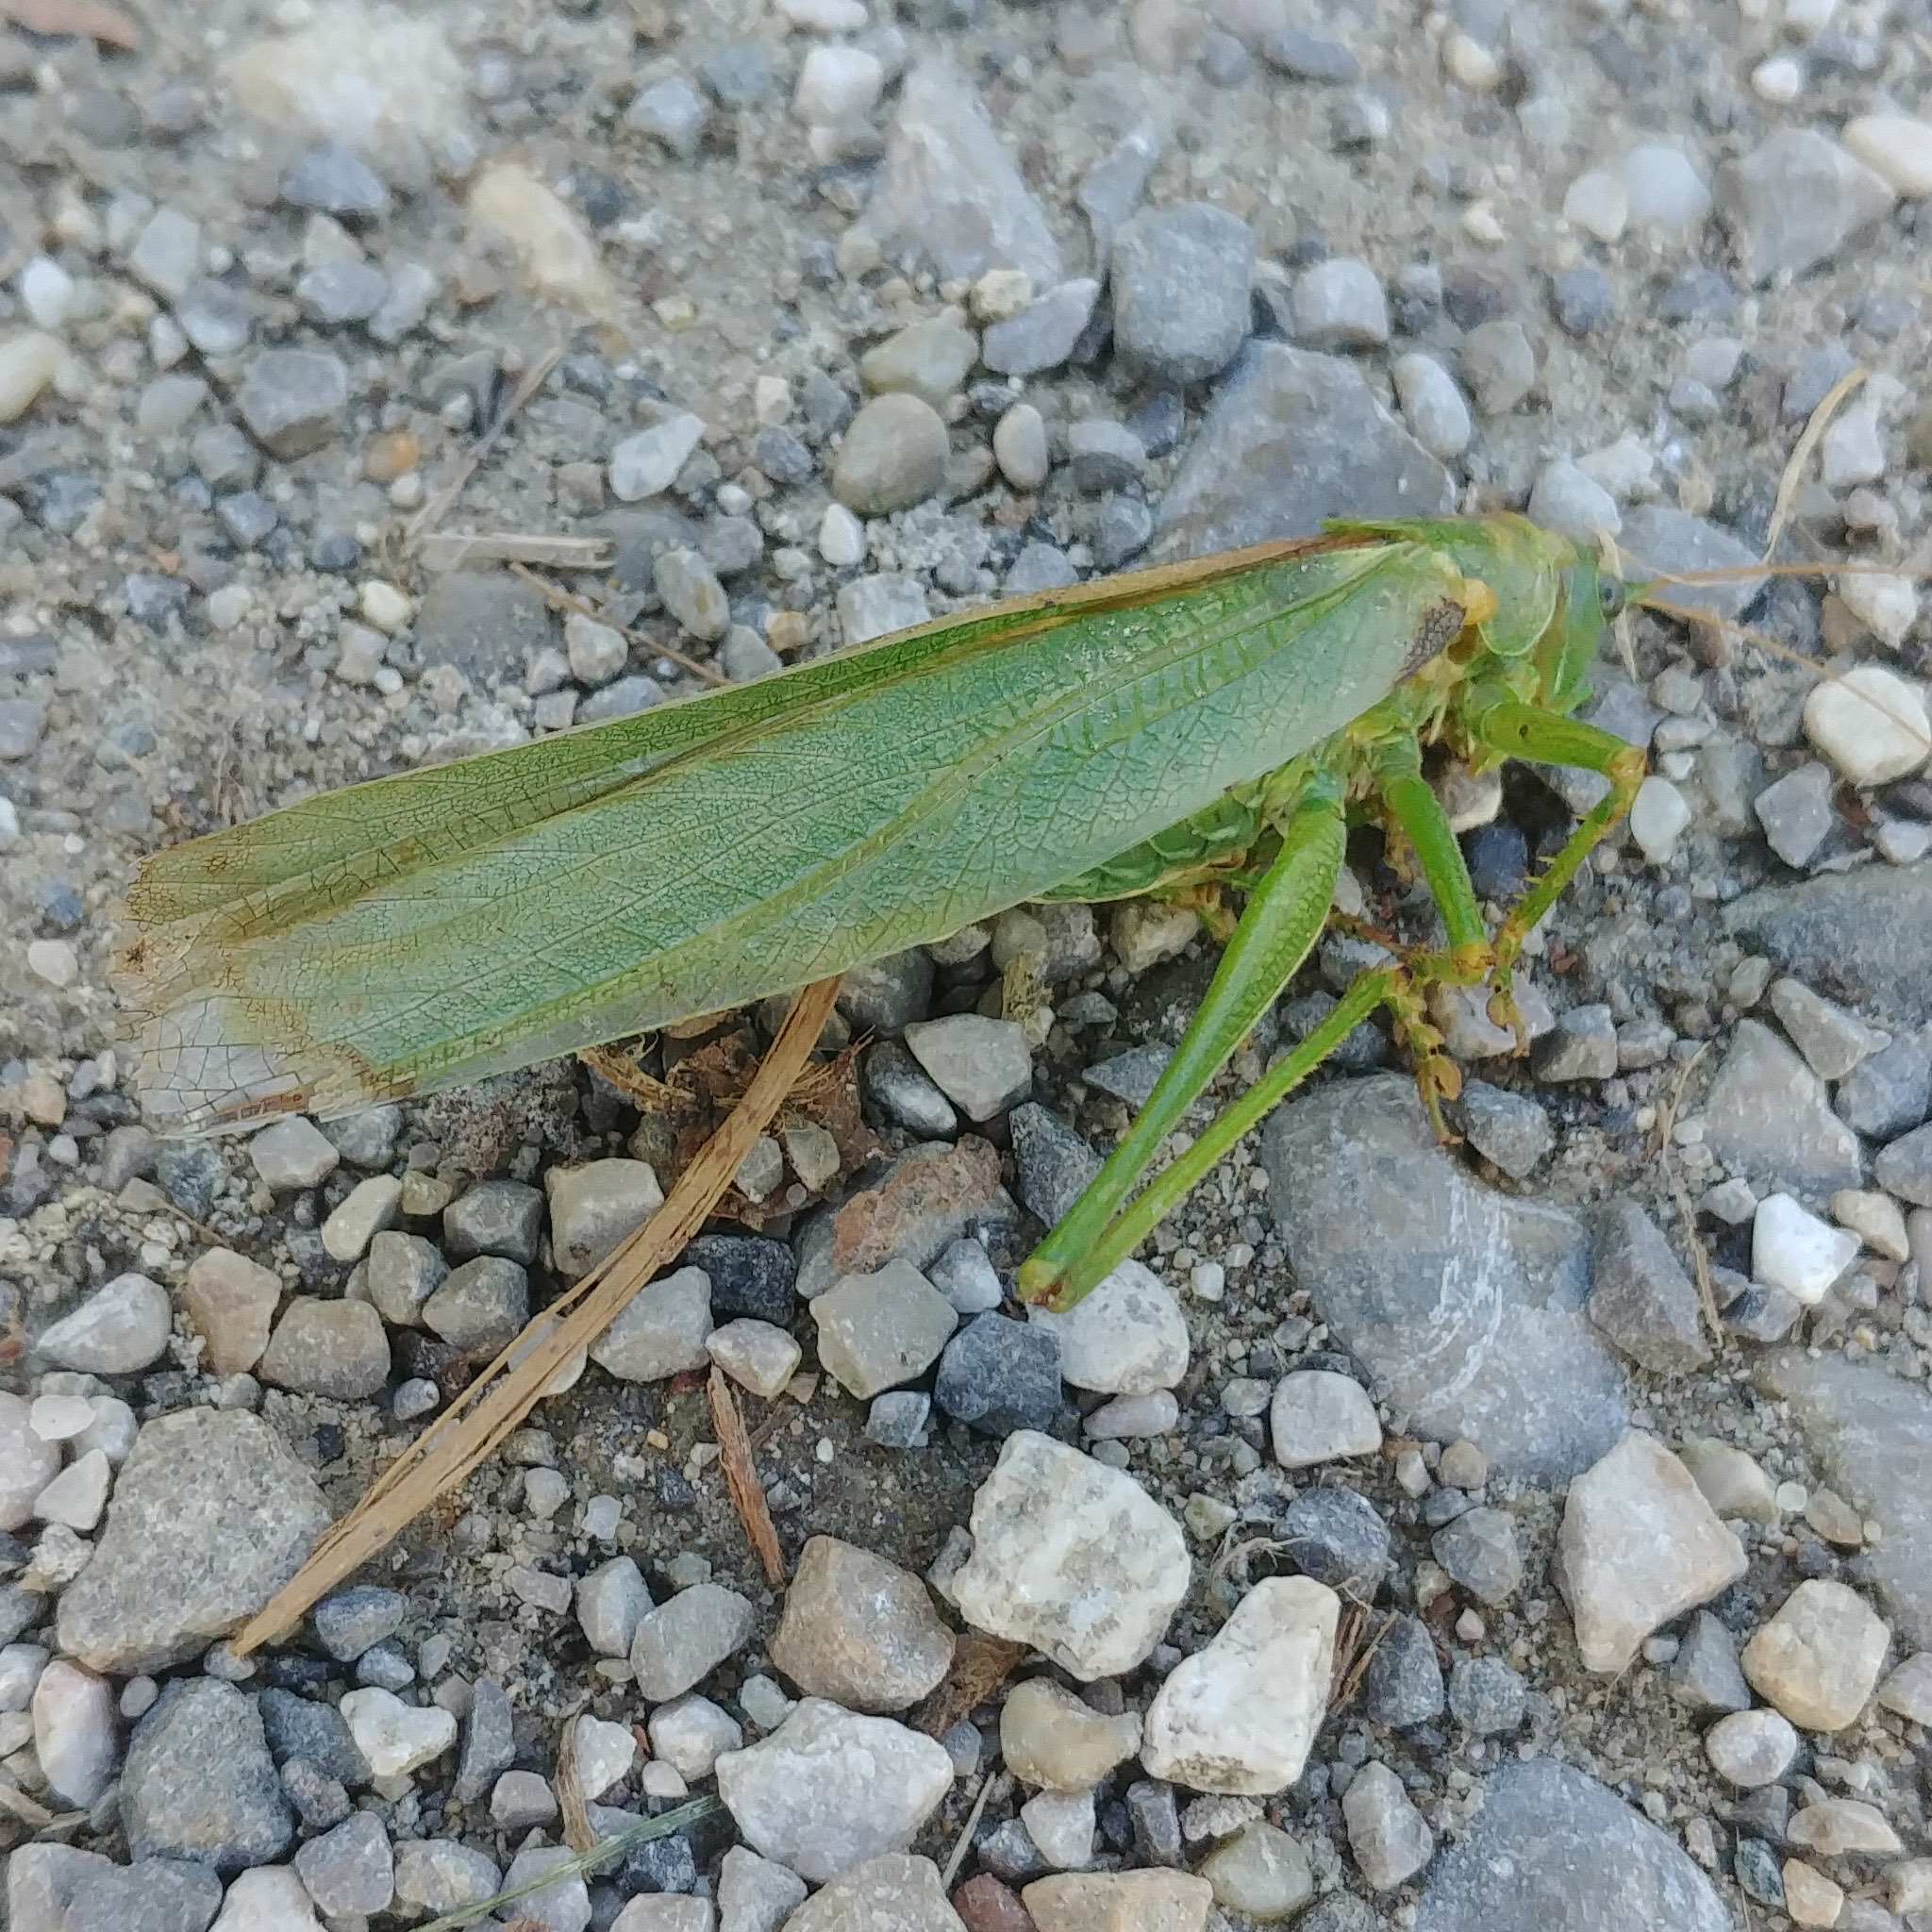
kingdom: Animalia
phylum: Arthropoda
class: Insecta
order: Orthoptera
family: Tettigoniidae
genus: Tettigonia
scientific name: Tettigonia viridissima
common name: Great green bush-cricket
